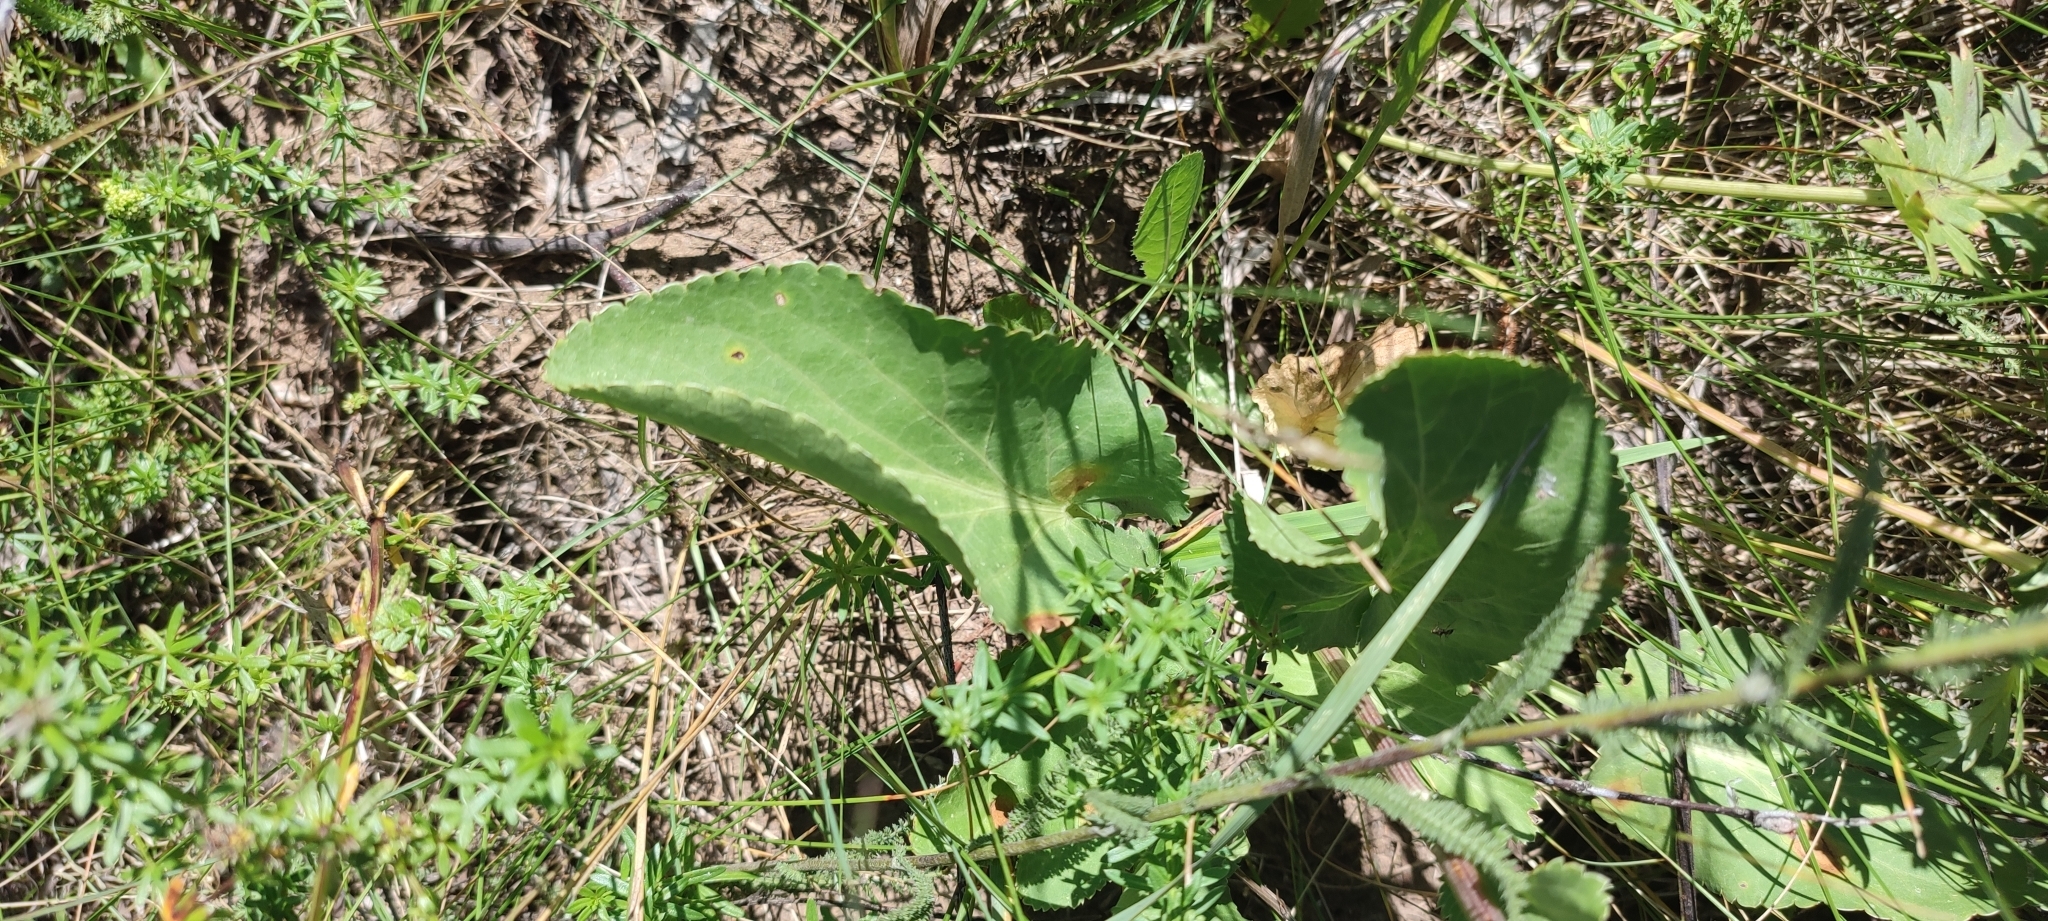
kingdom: Plantae
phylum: Tracheophyta
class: Magnoliopsida
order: Apiales
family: Apiaceae
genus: Eryngium
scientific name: Eryngium planum
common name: Blue eryngo
